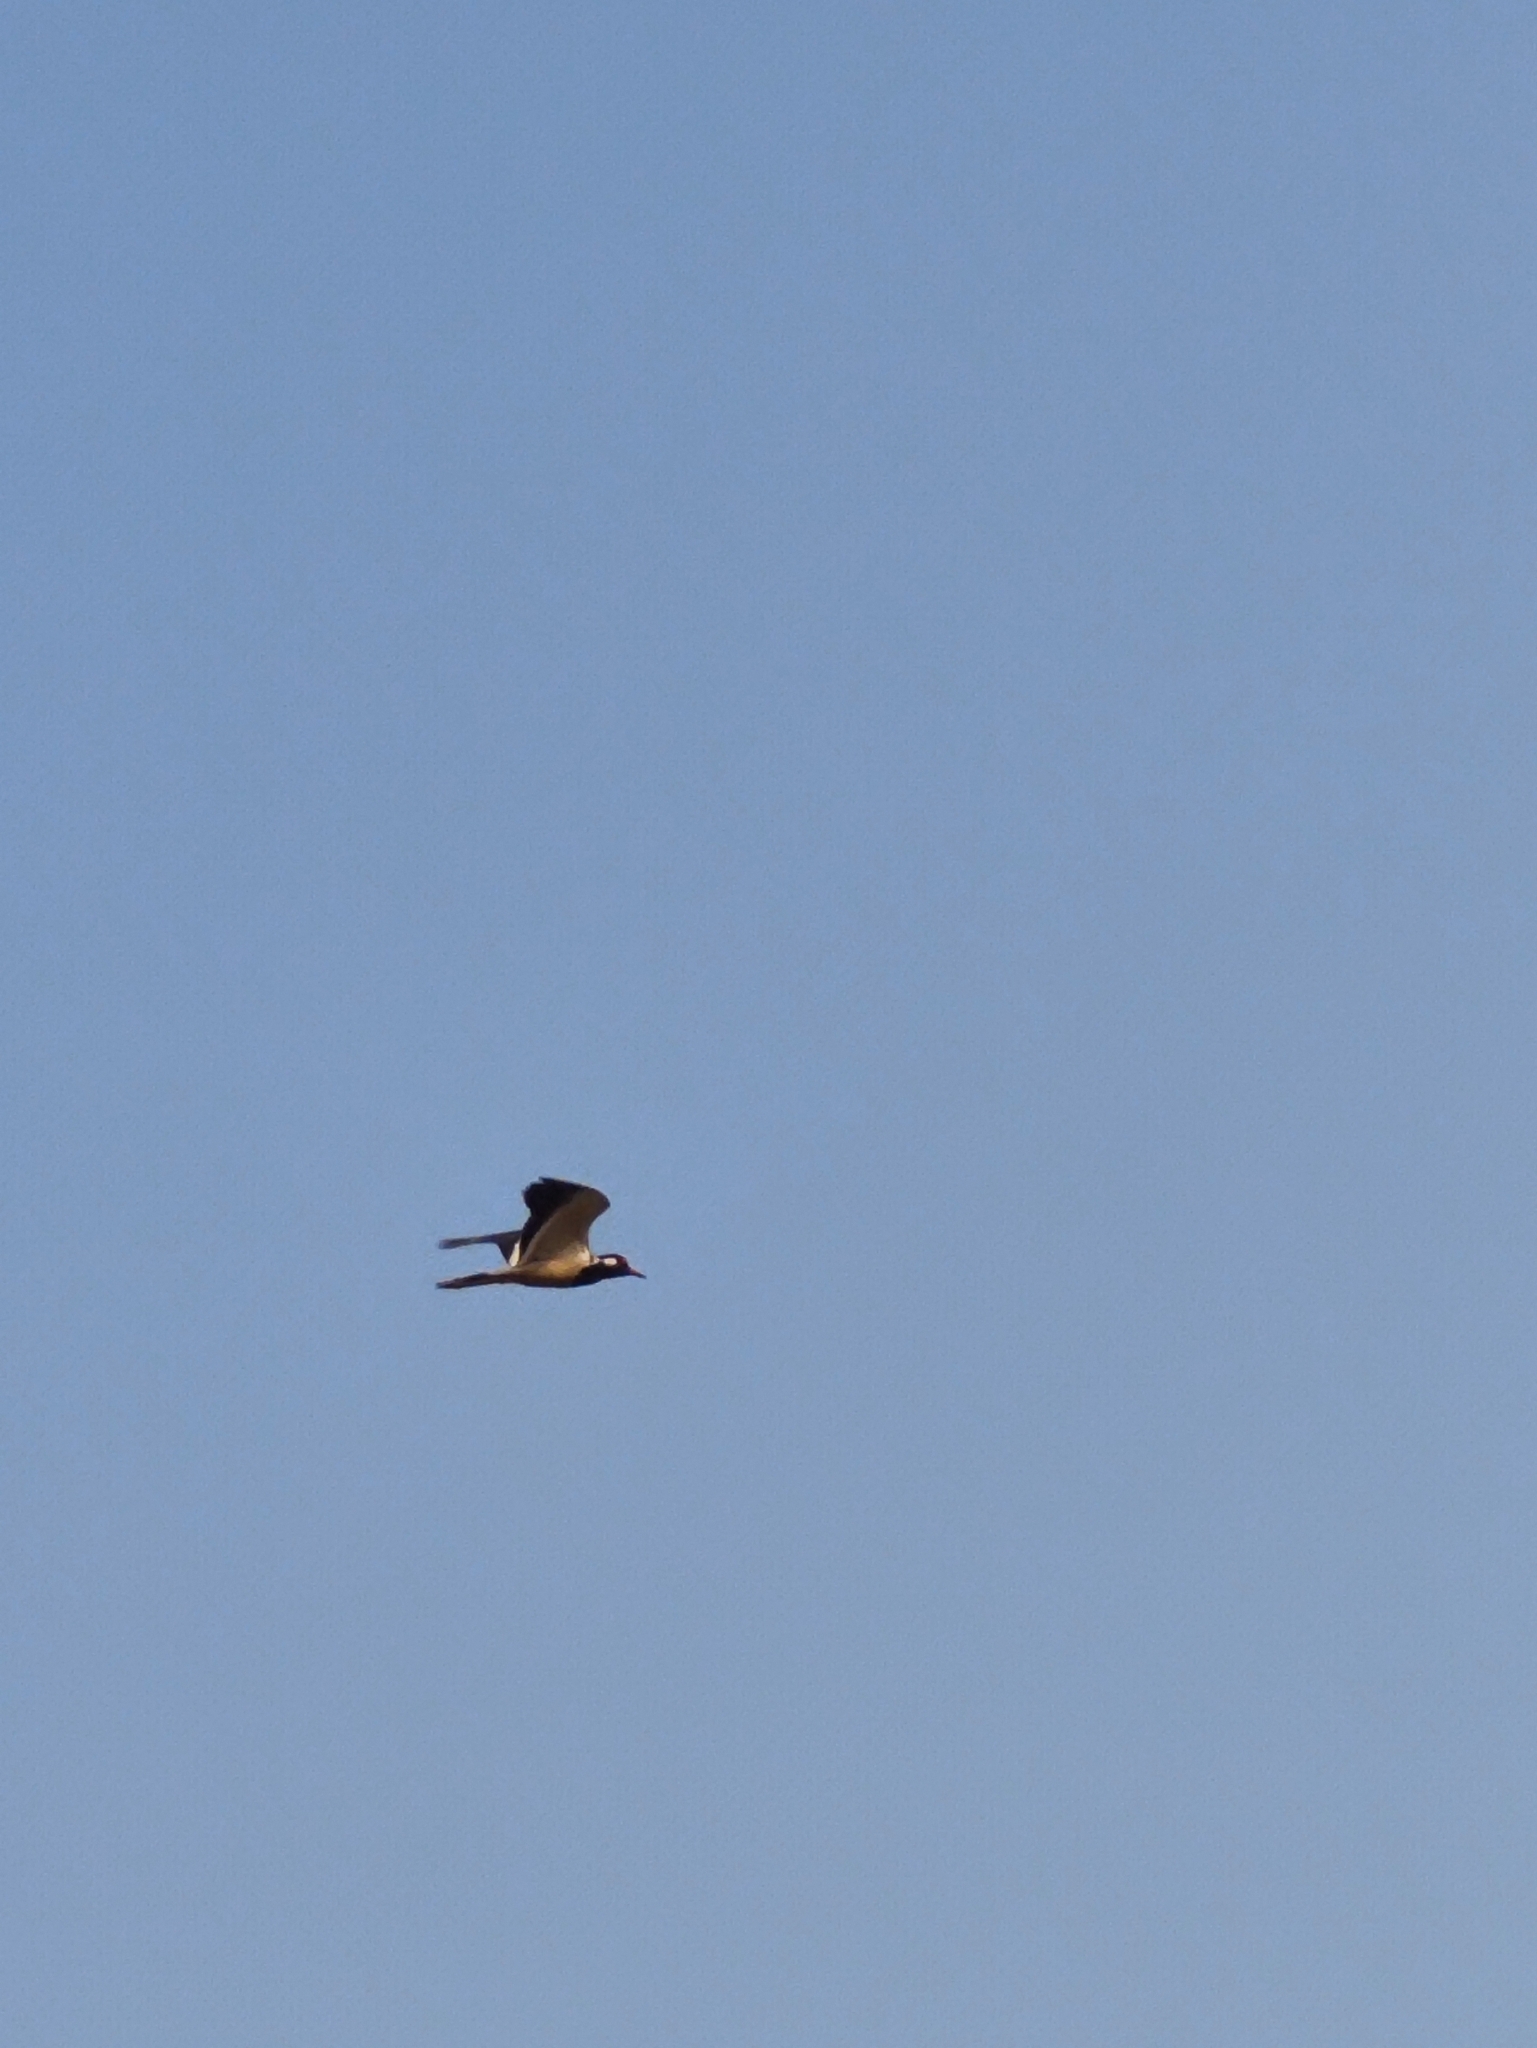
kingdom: Animalia
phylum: Chordata
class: Aves
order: Charadriiformes
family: Charadriidae
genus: Vanellus
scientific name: Vanellus indicus
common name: Red-wattled lapwing
